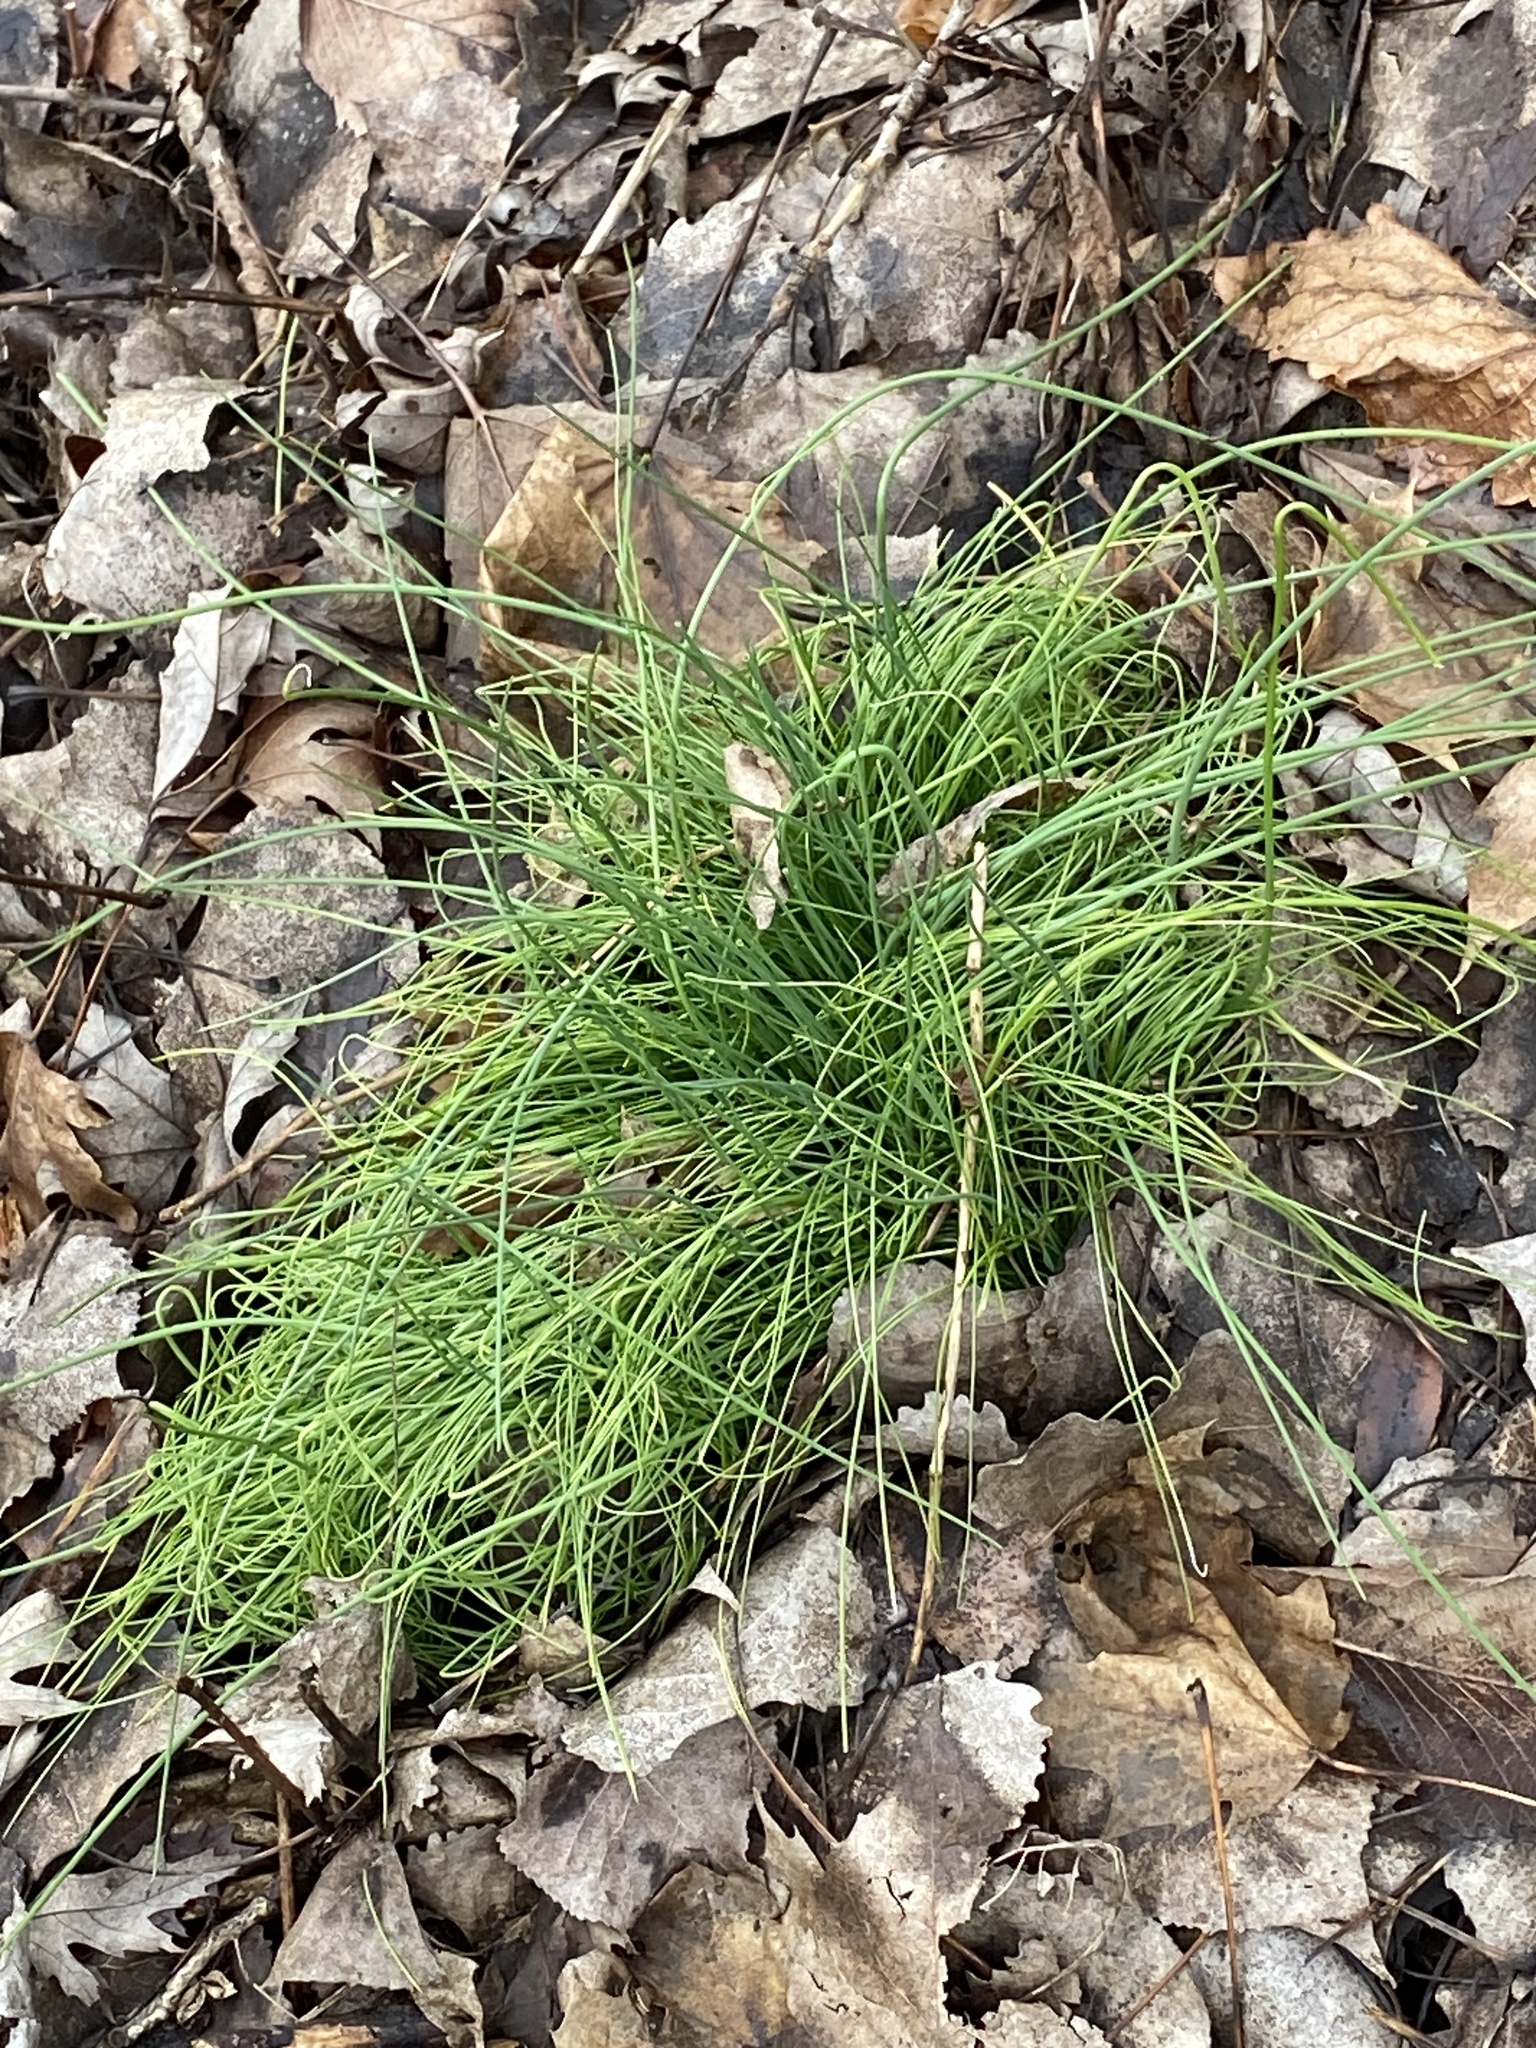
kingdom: Plantae
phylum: Tracheophyta
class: Liliopsida
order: Asparagales
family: Amaryllidaceae
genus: Allium
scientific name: Allium vineale
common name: Crow garlic
